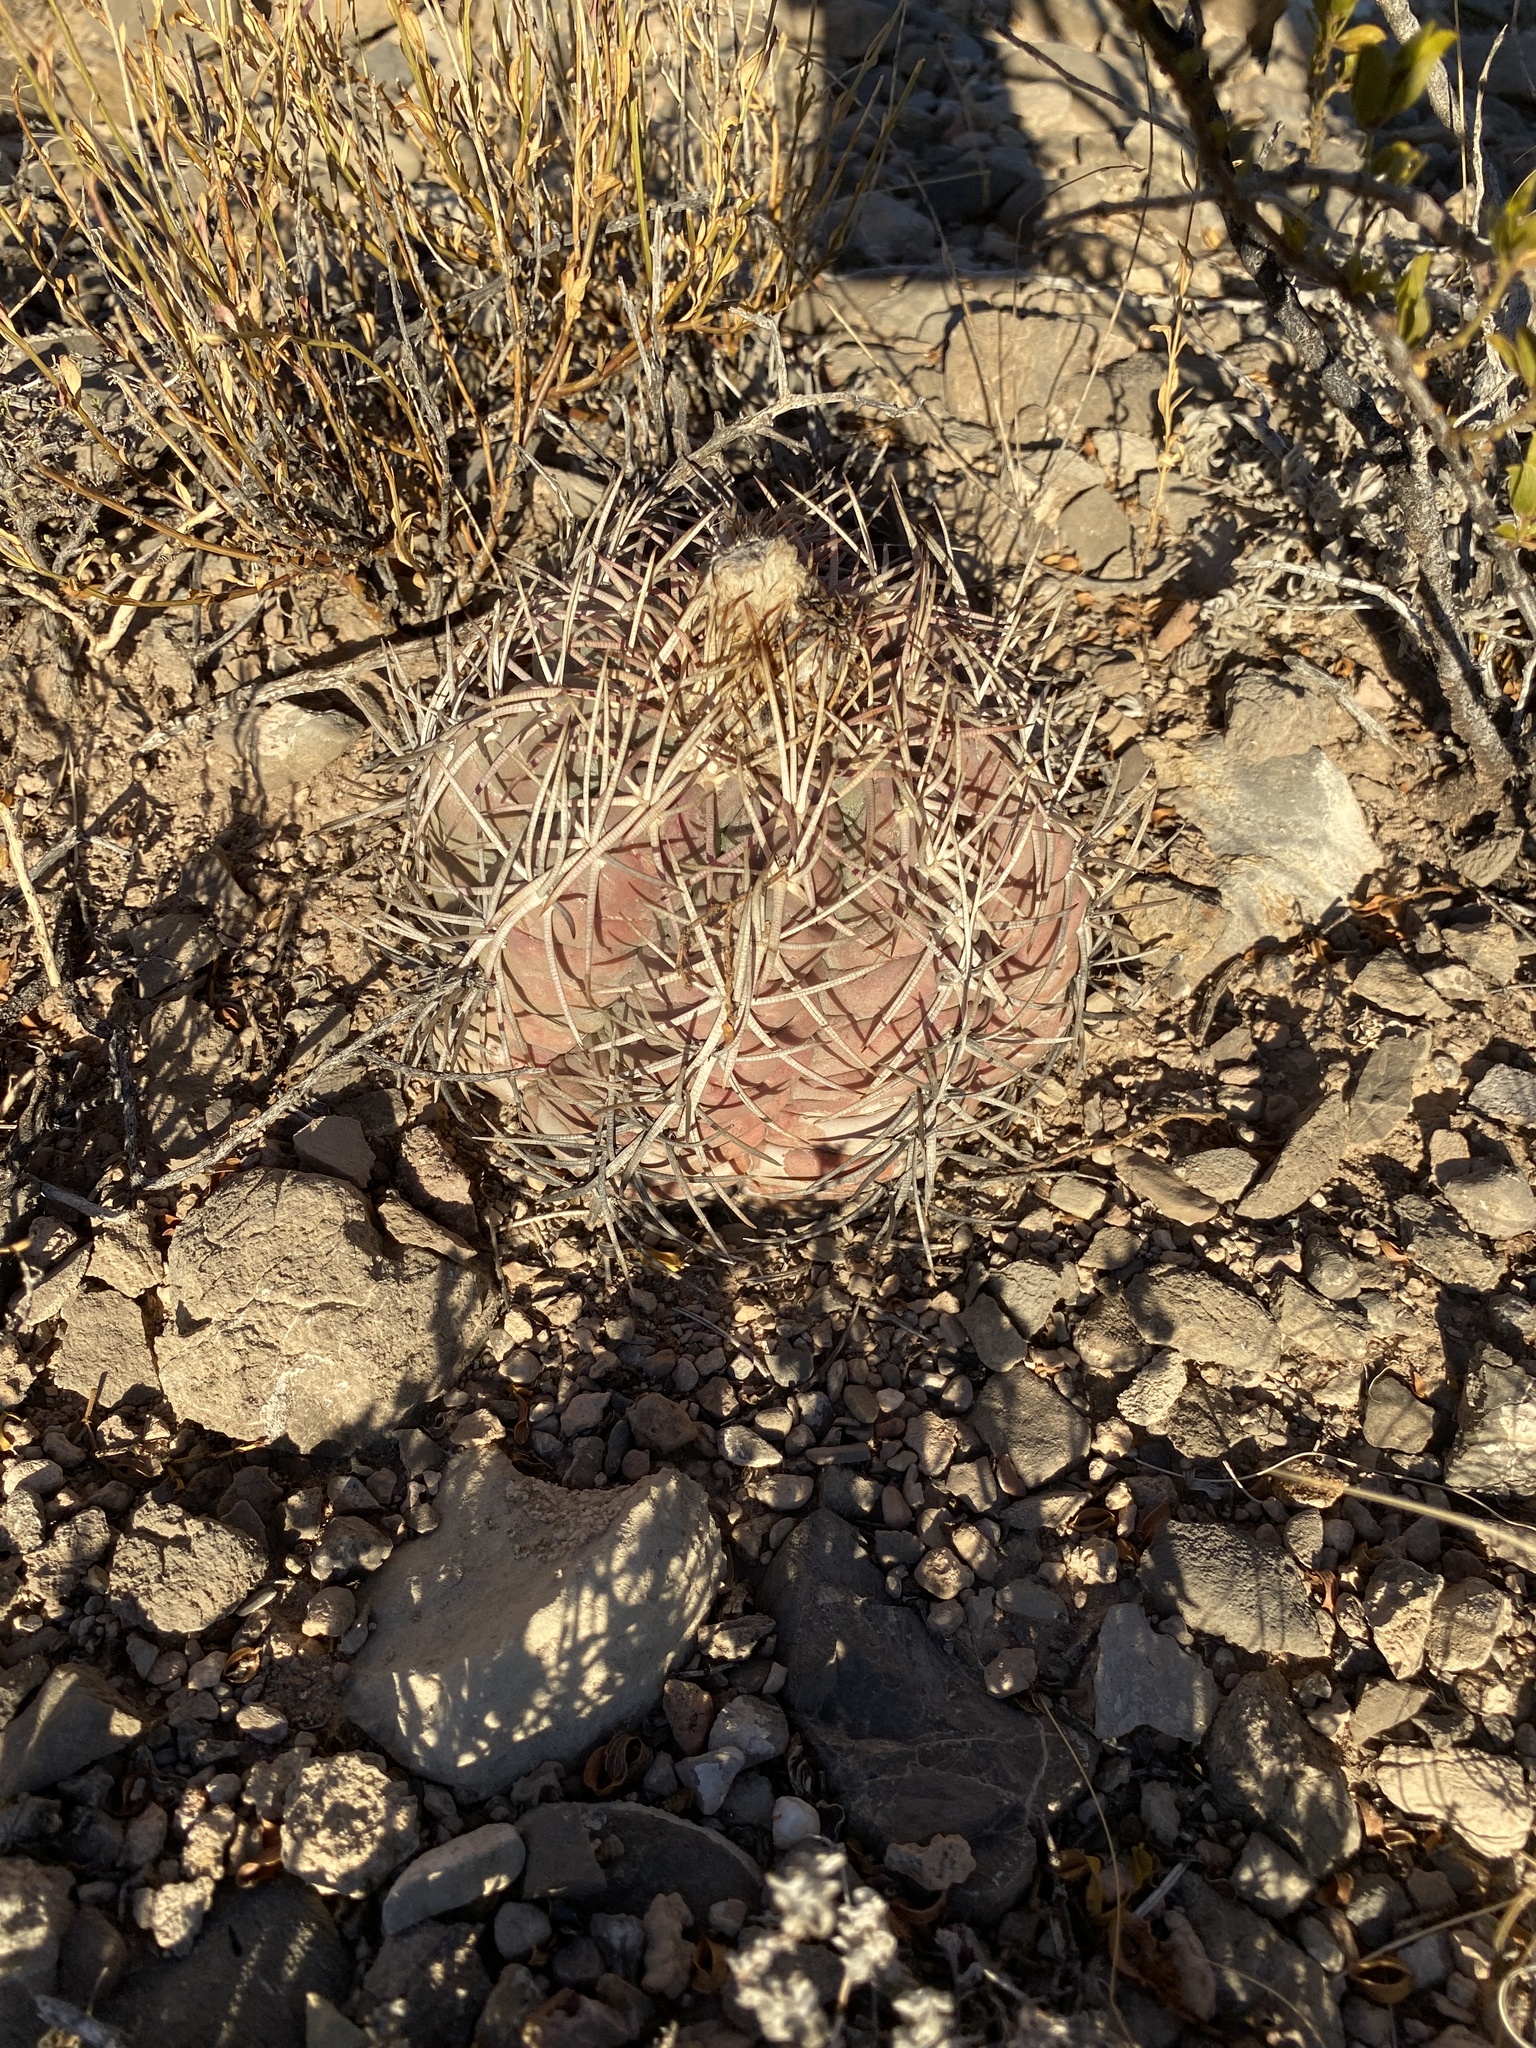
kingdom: Plantae
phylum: Tracheophyta
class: Magnoliopsida
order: Caryophyllales
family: Cactaceae
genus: Echinocactus
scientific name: Echinocactus horizonthalonius
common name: Devilshead
